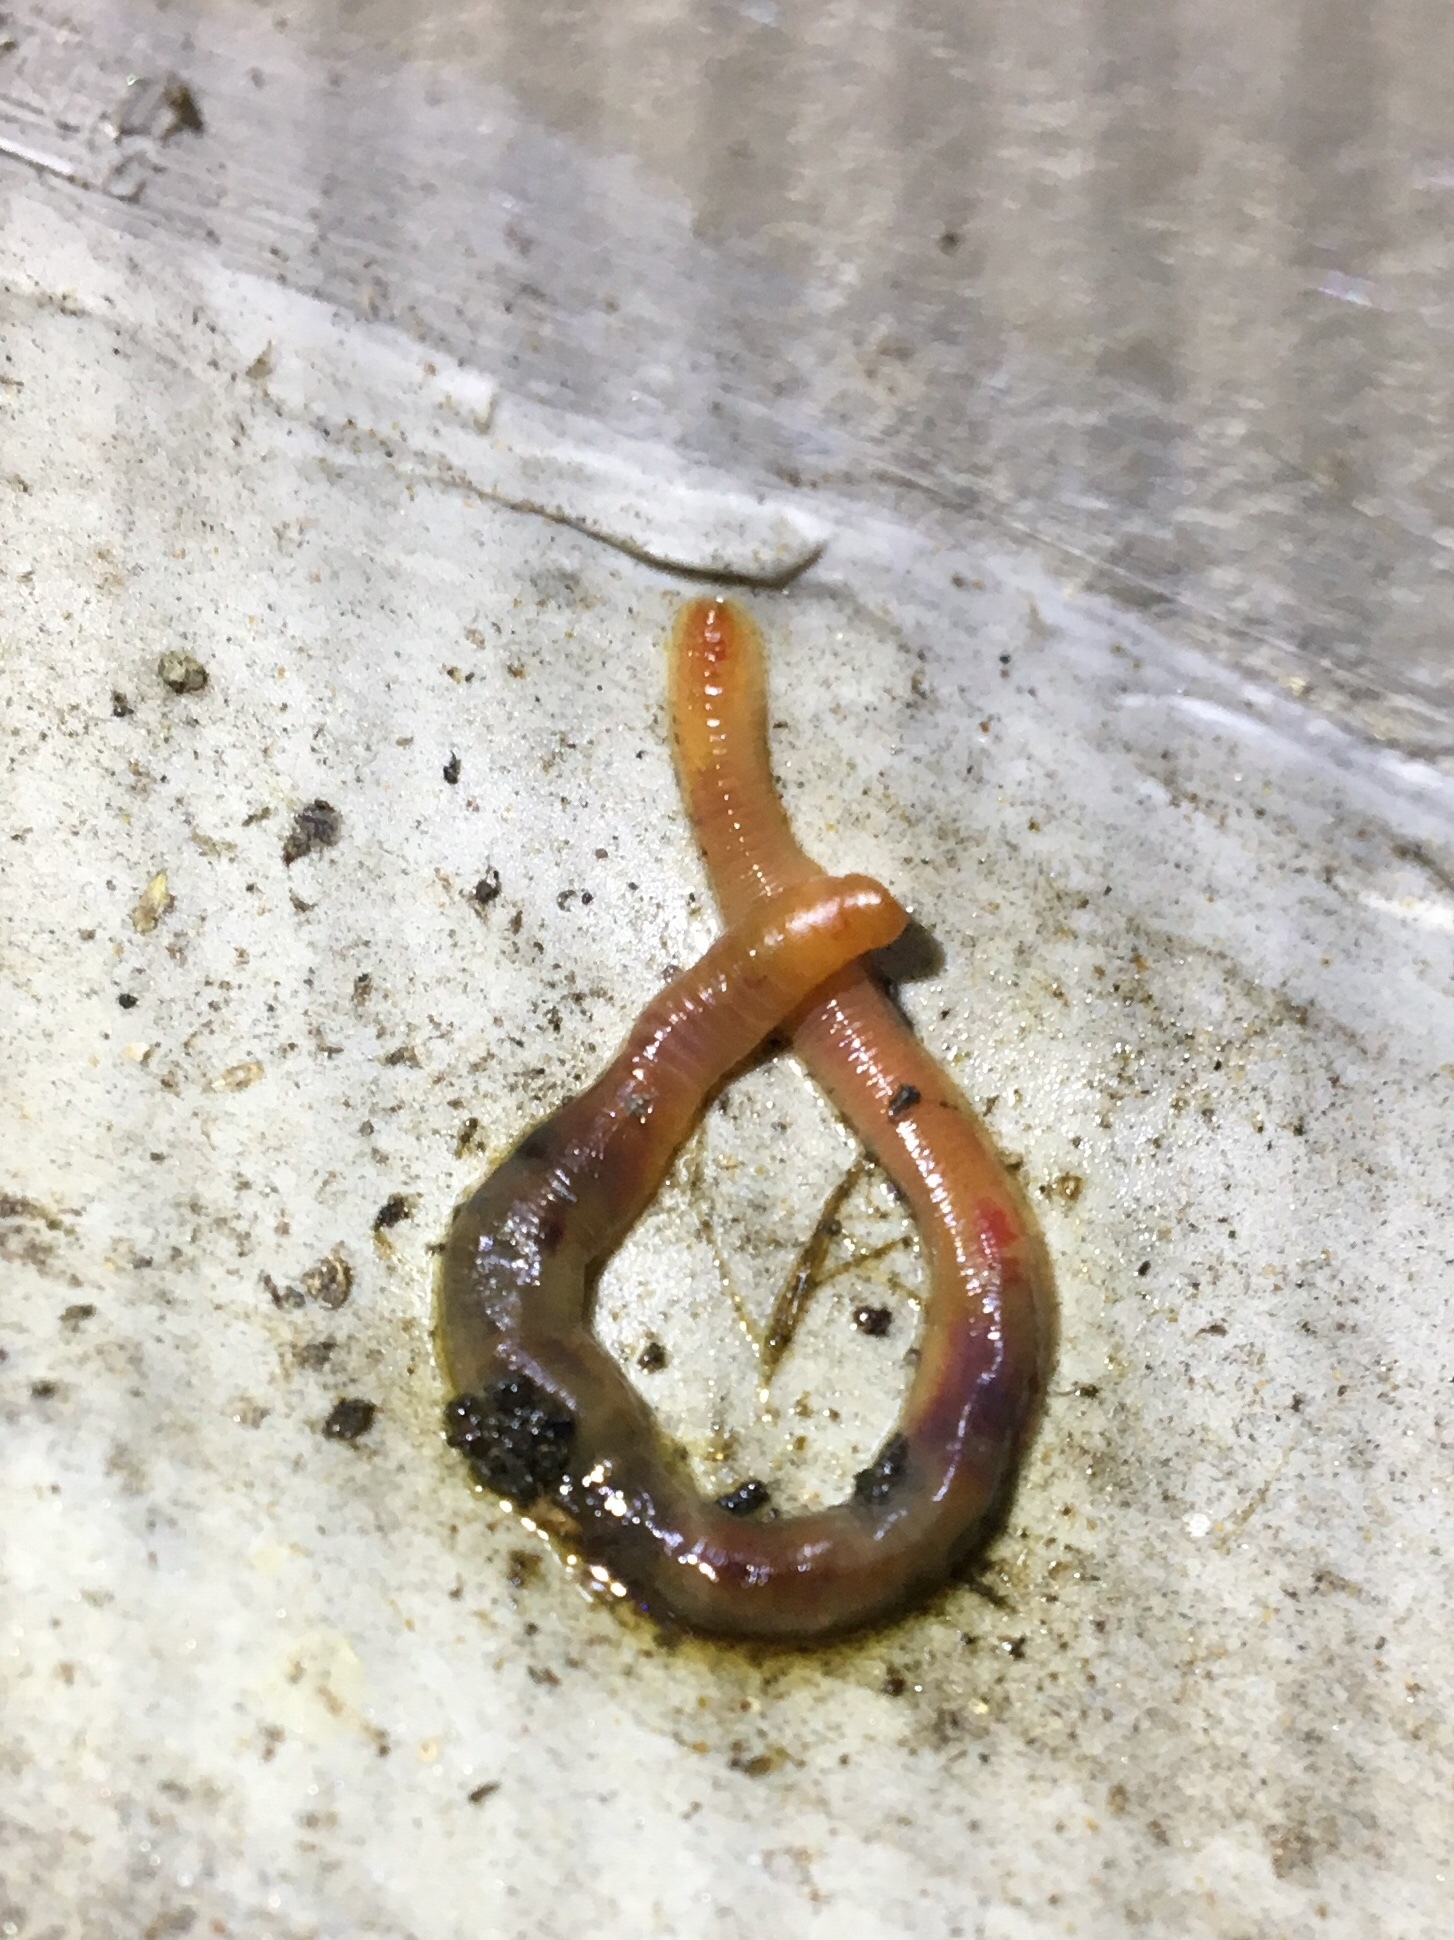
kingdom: Animalia
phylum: Annelida
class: Clitellata
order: Crassiclitellata
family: Lumbricidae
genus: Lumbricus
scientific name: Lumbricus terrestris
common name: Common earthworm
